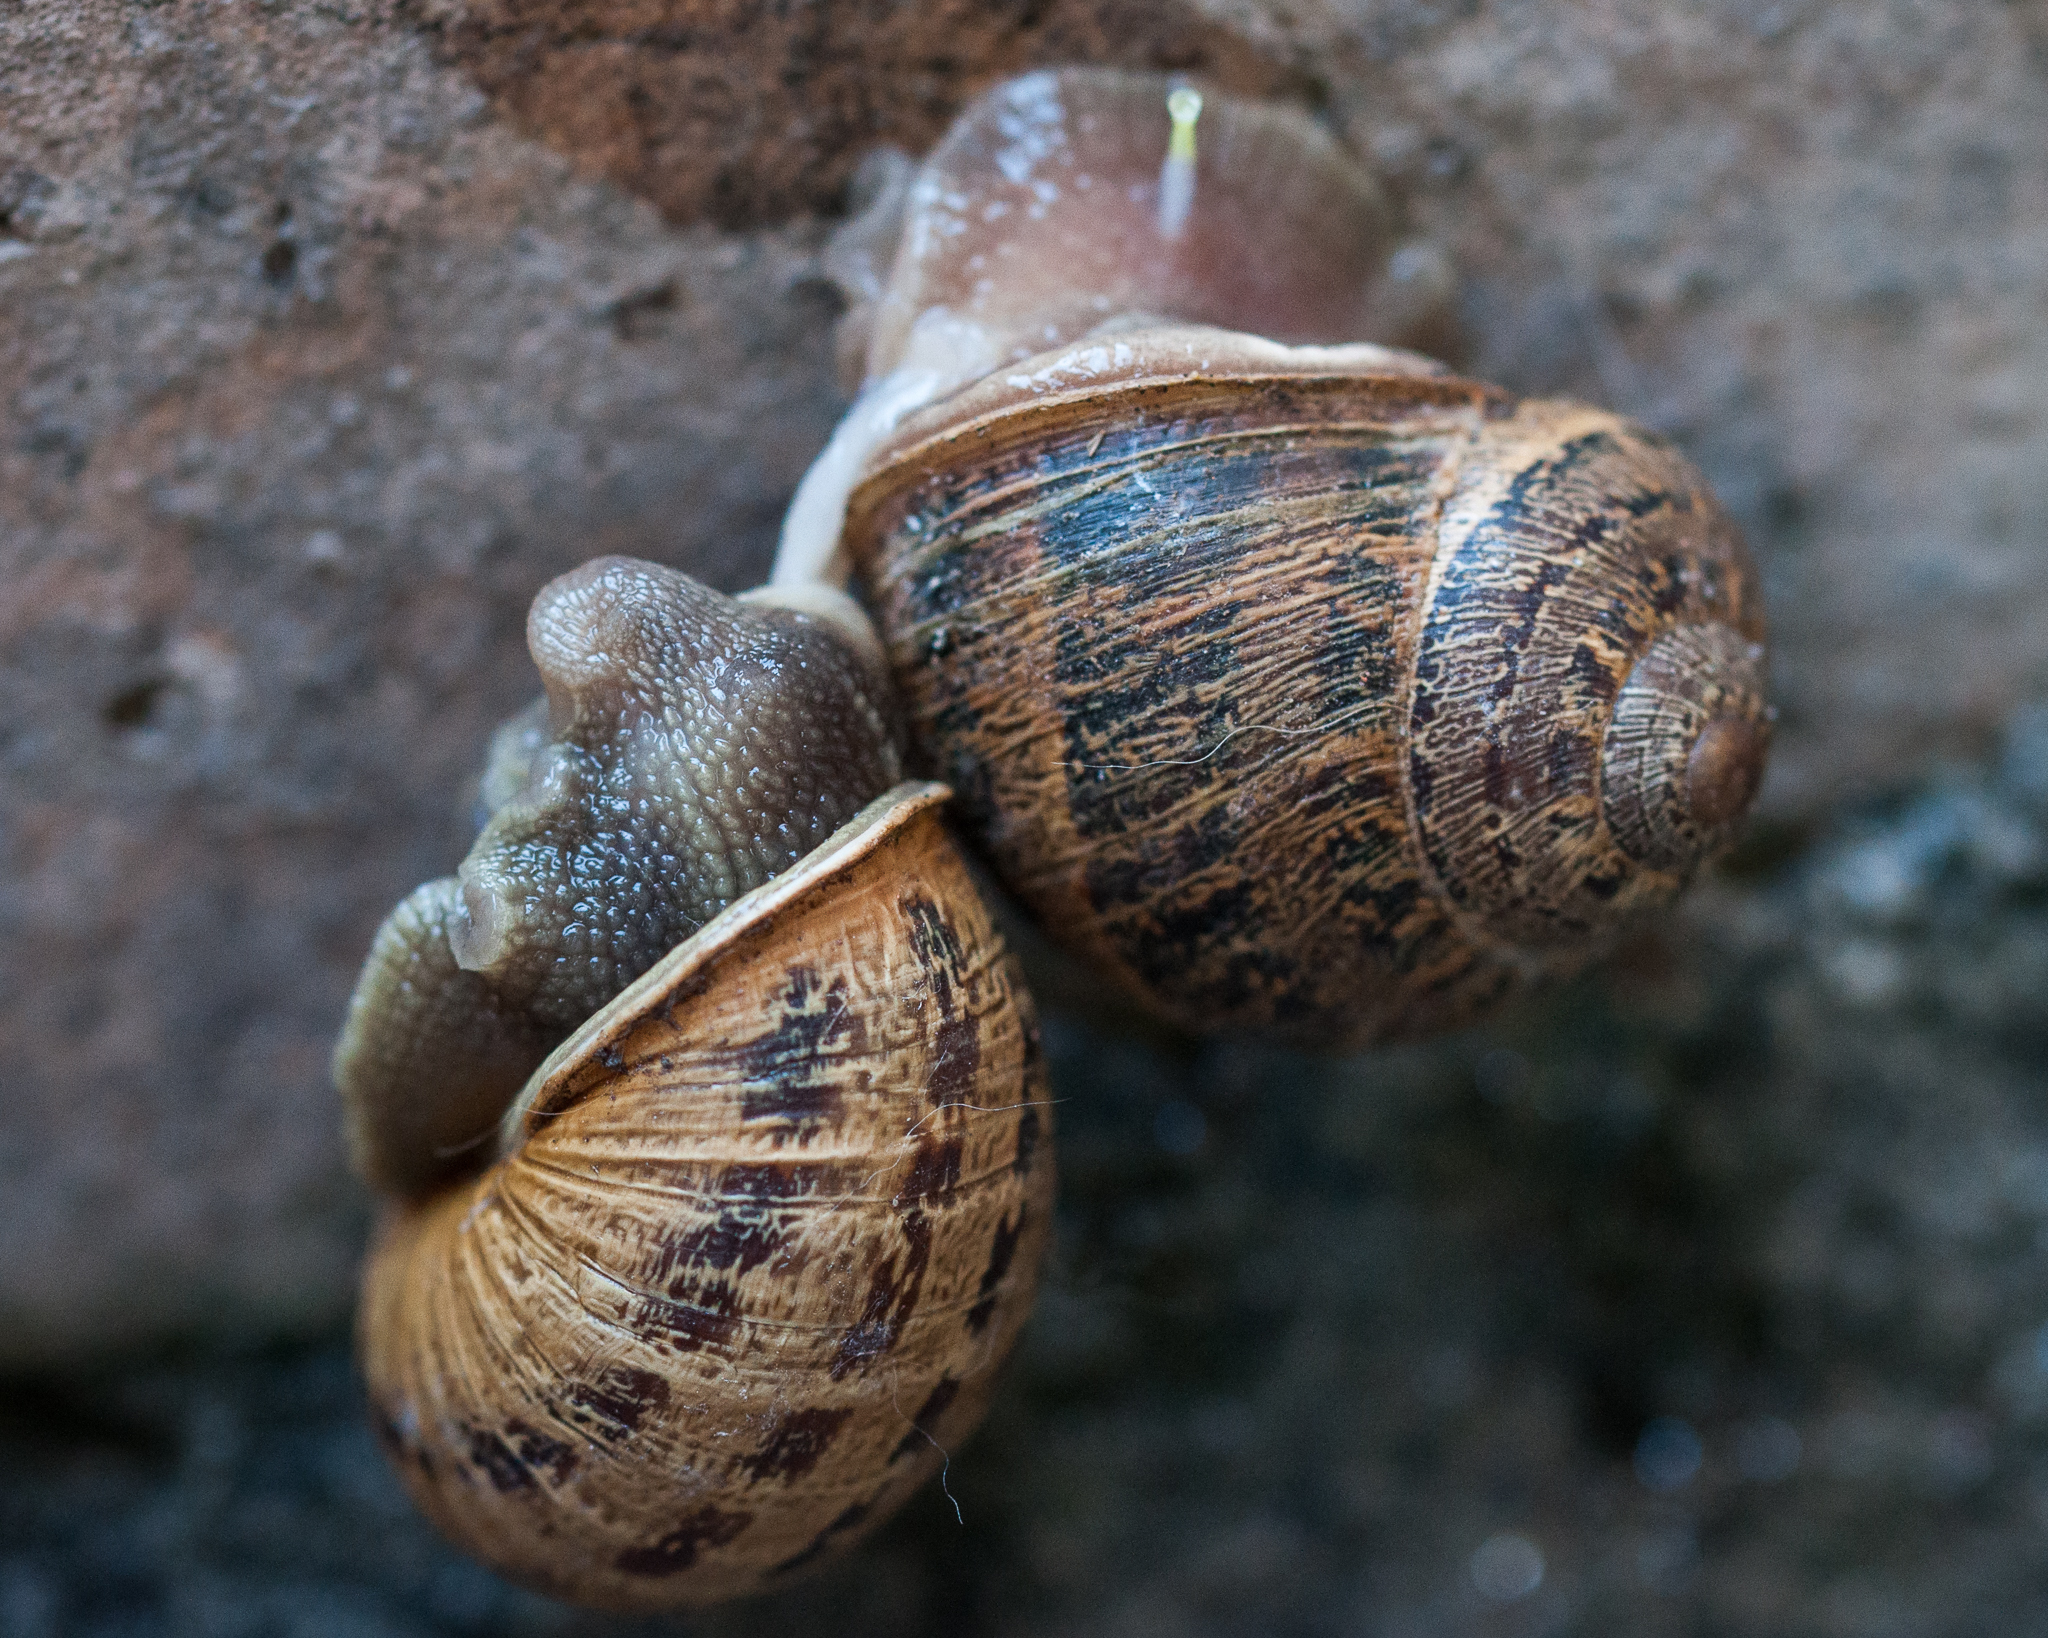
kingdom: Animalia
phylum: Mollusca
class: Gastropoda
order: Stylommatophora
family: Helicidae
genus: Cornu
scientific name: Cornu aspersum
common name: Brown garden snail
